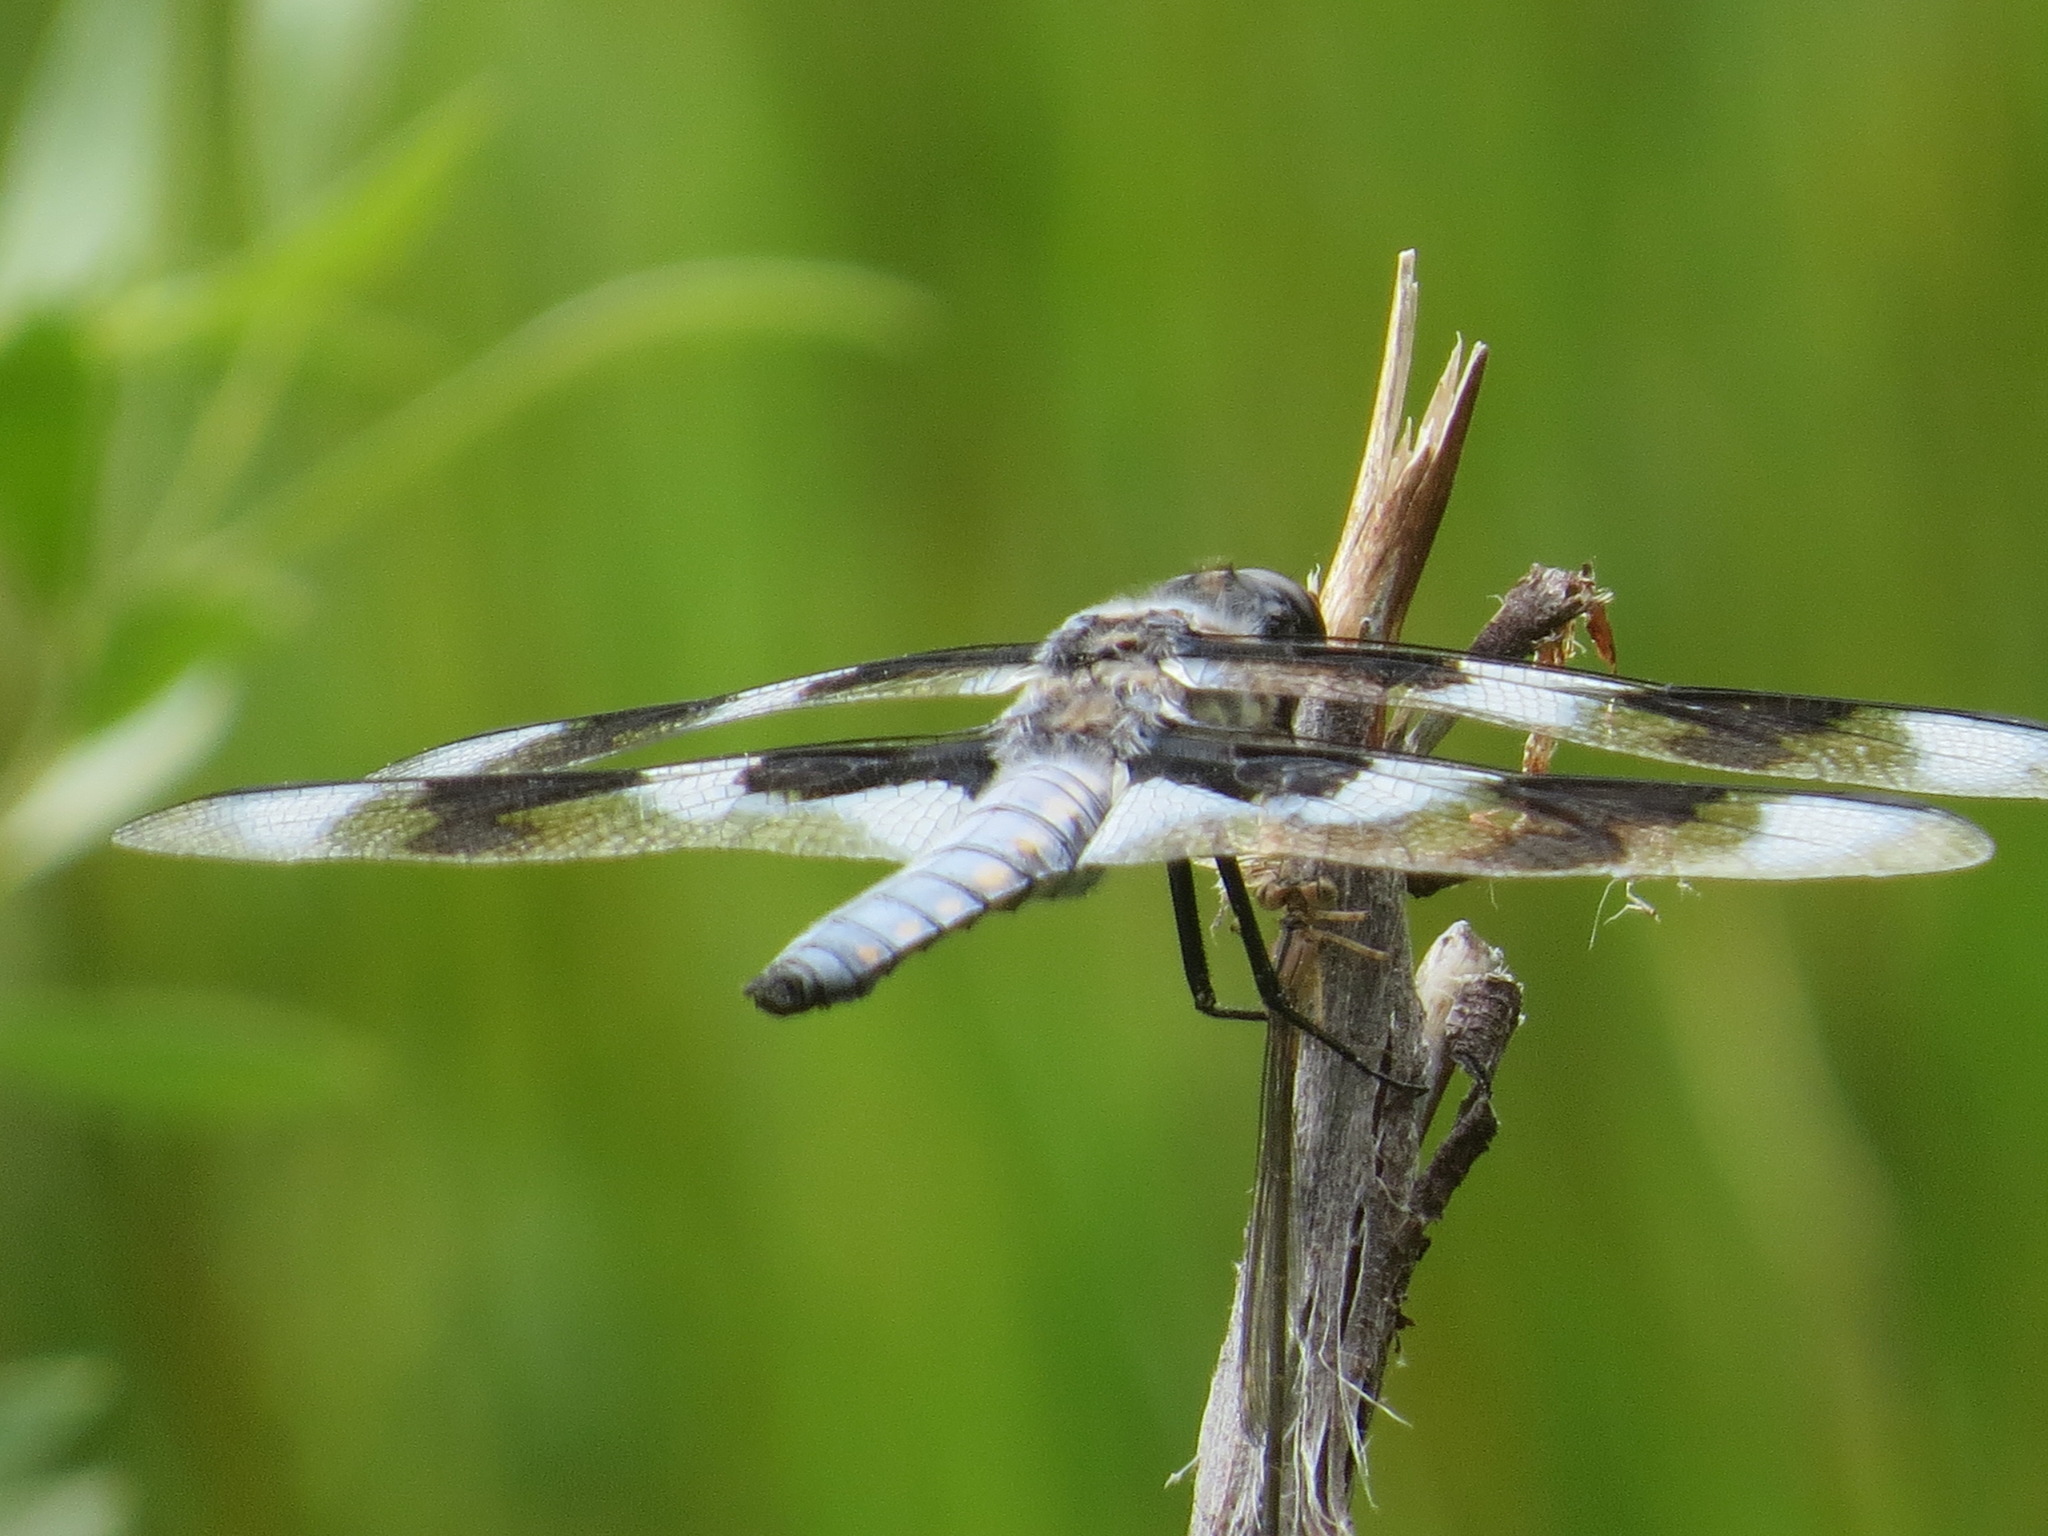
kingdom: Animalia
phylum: Arthropoda
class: Insecta
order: Odonata
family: Libellulidae
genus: Libellula
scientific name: Libellula forensis
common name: Eight-spotted skimmer
